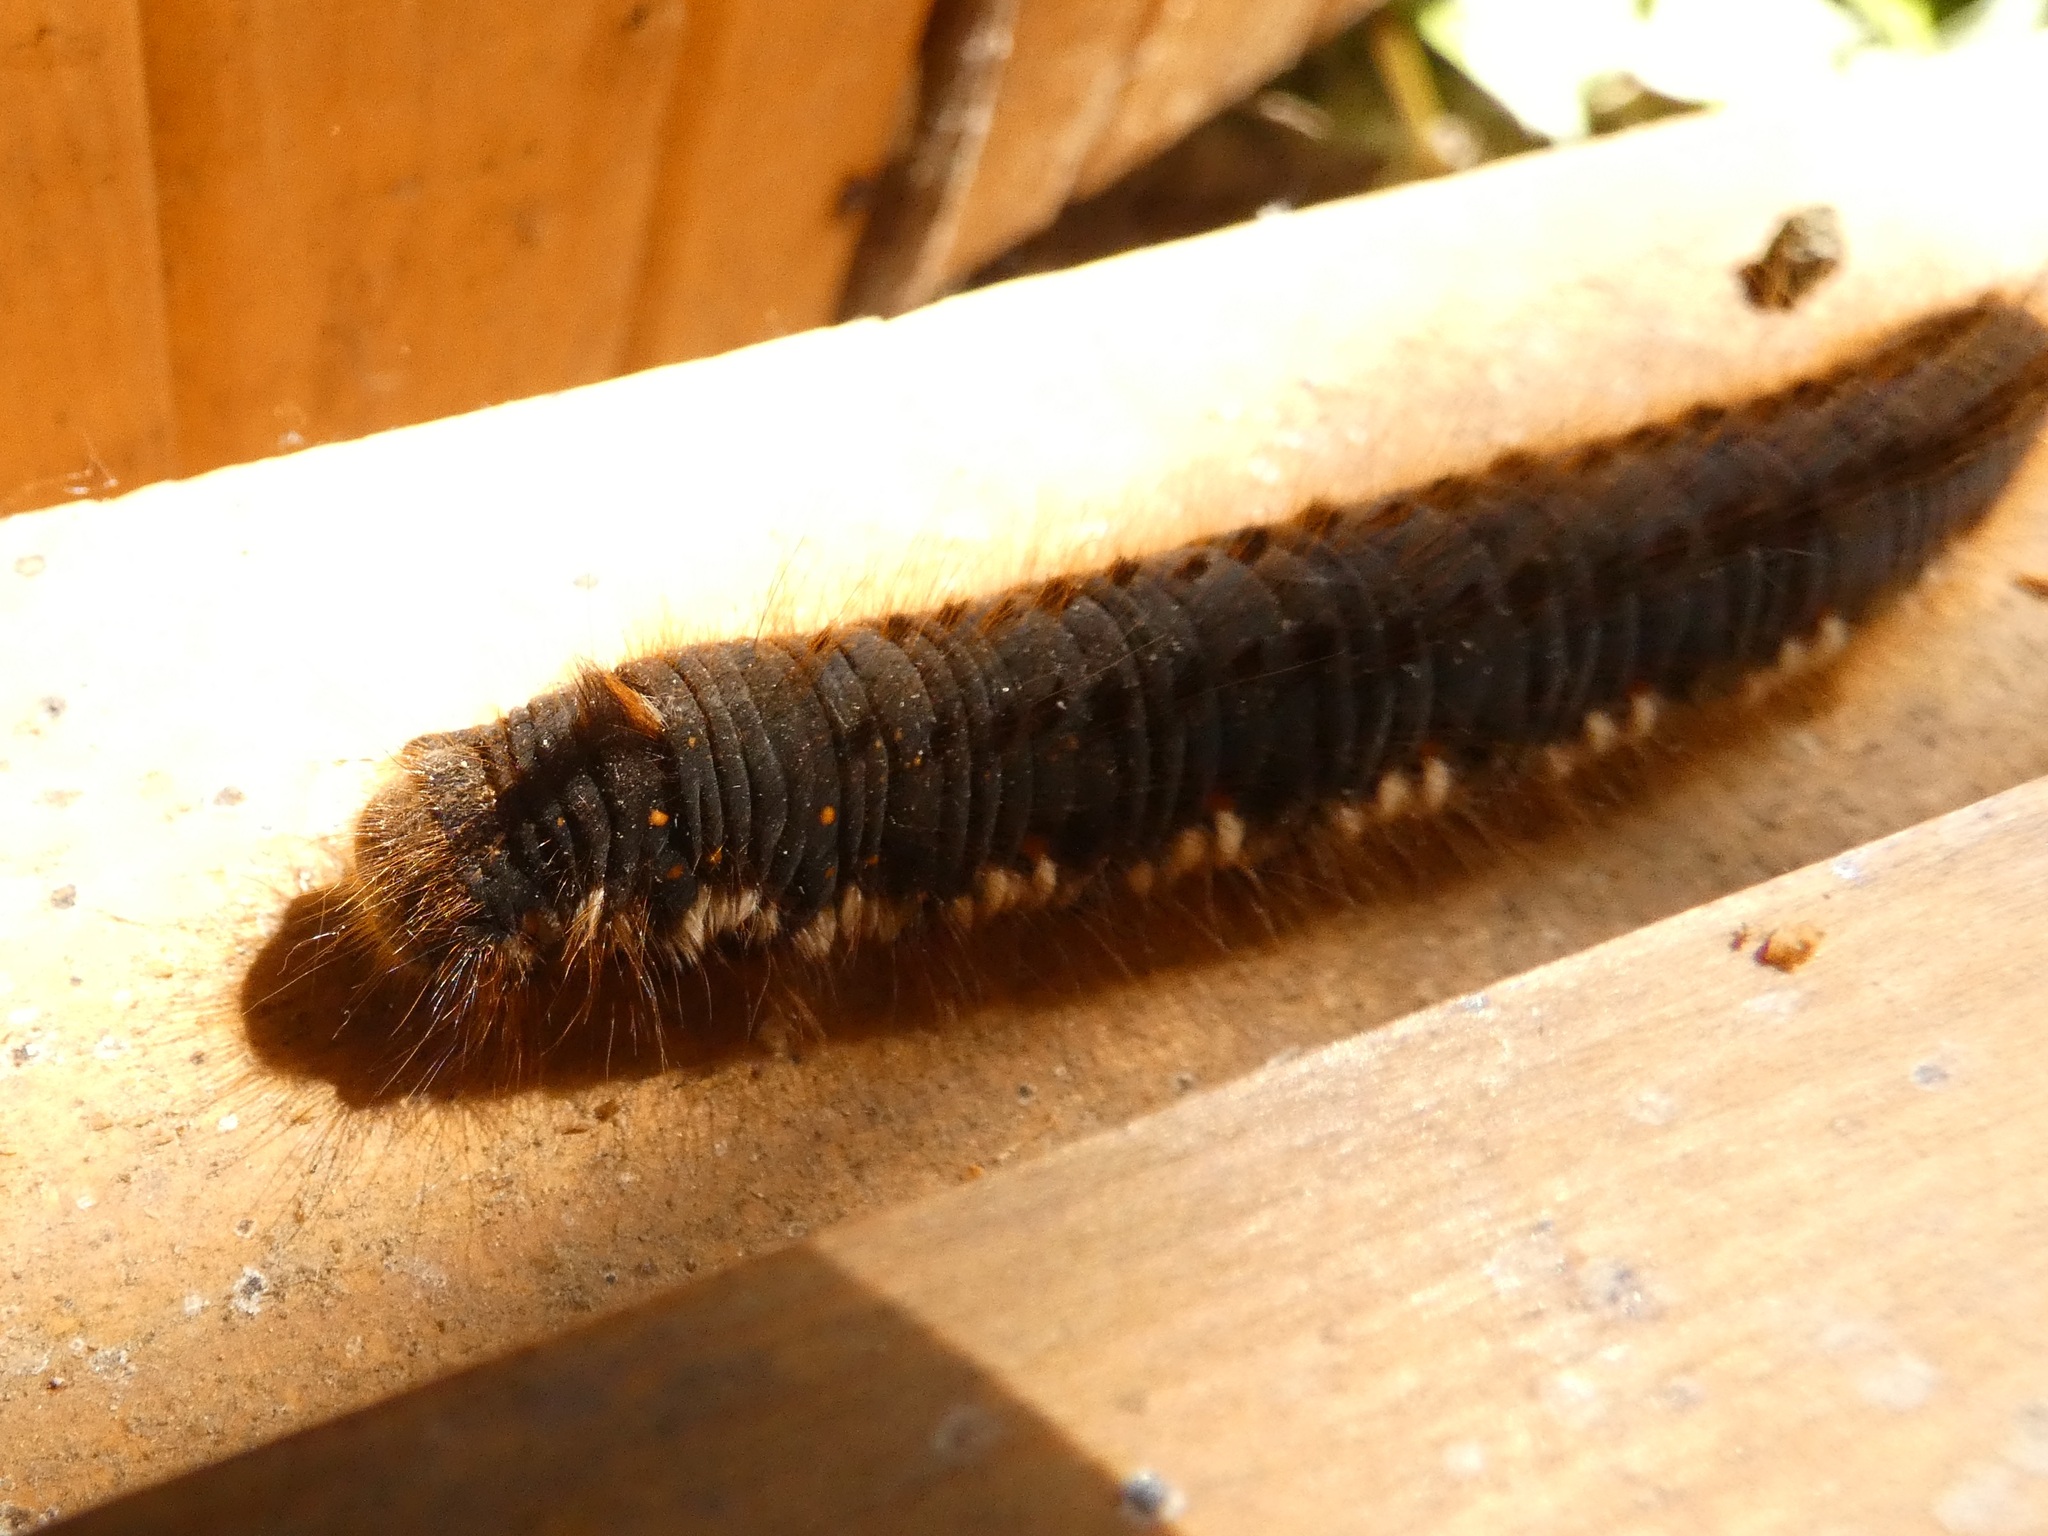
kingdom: Animalia
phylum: Arthropoda
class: Insecta
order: Lepidoptera
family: Lasiocampidae
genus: Euthrix
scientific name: Euthrix potatoria
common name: Drinker
